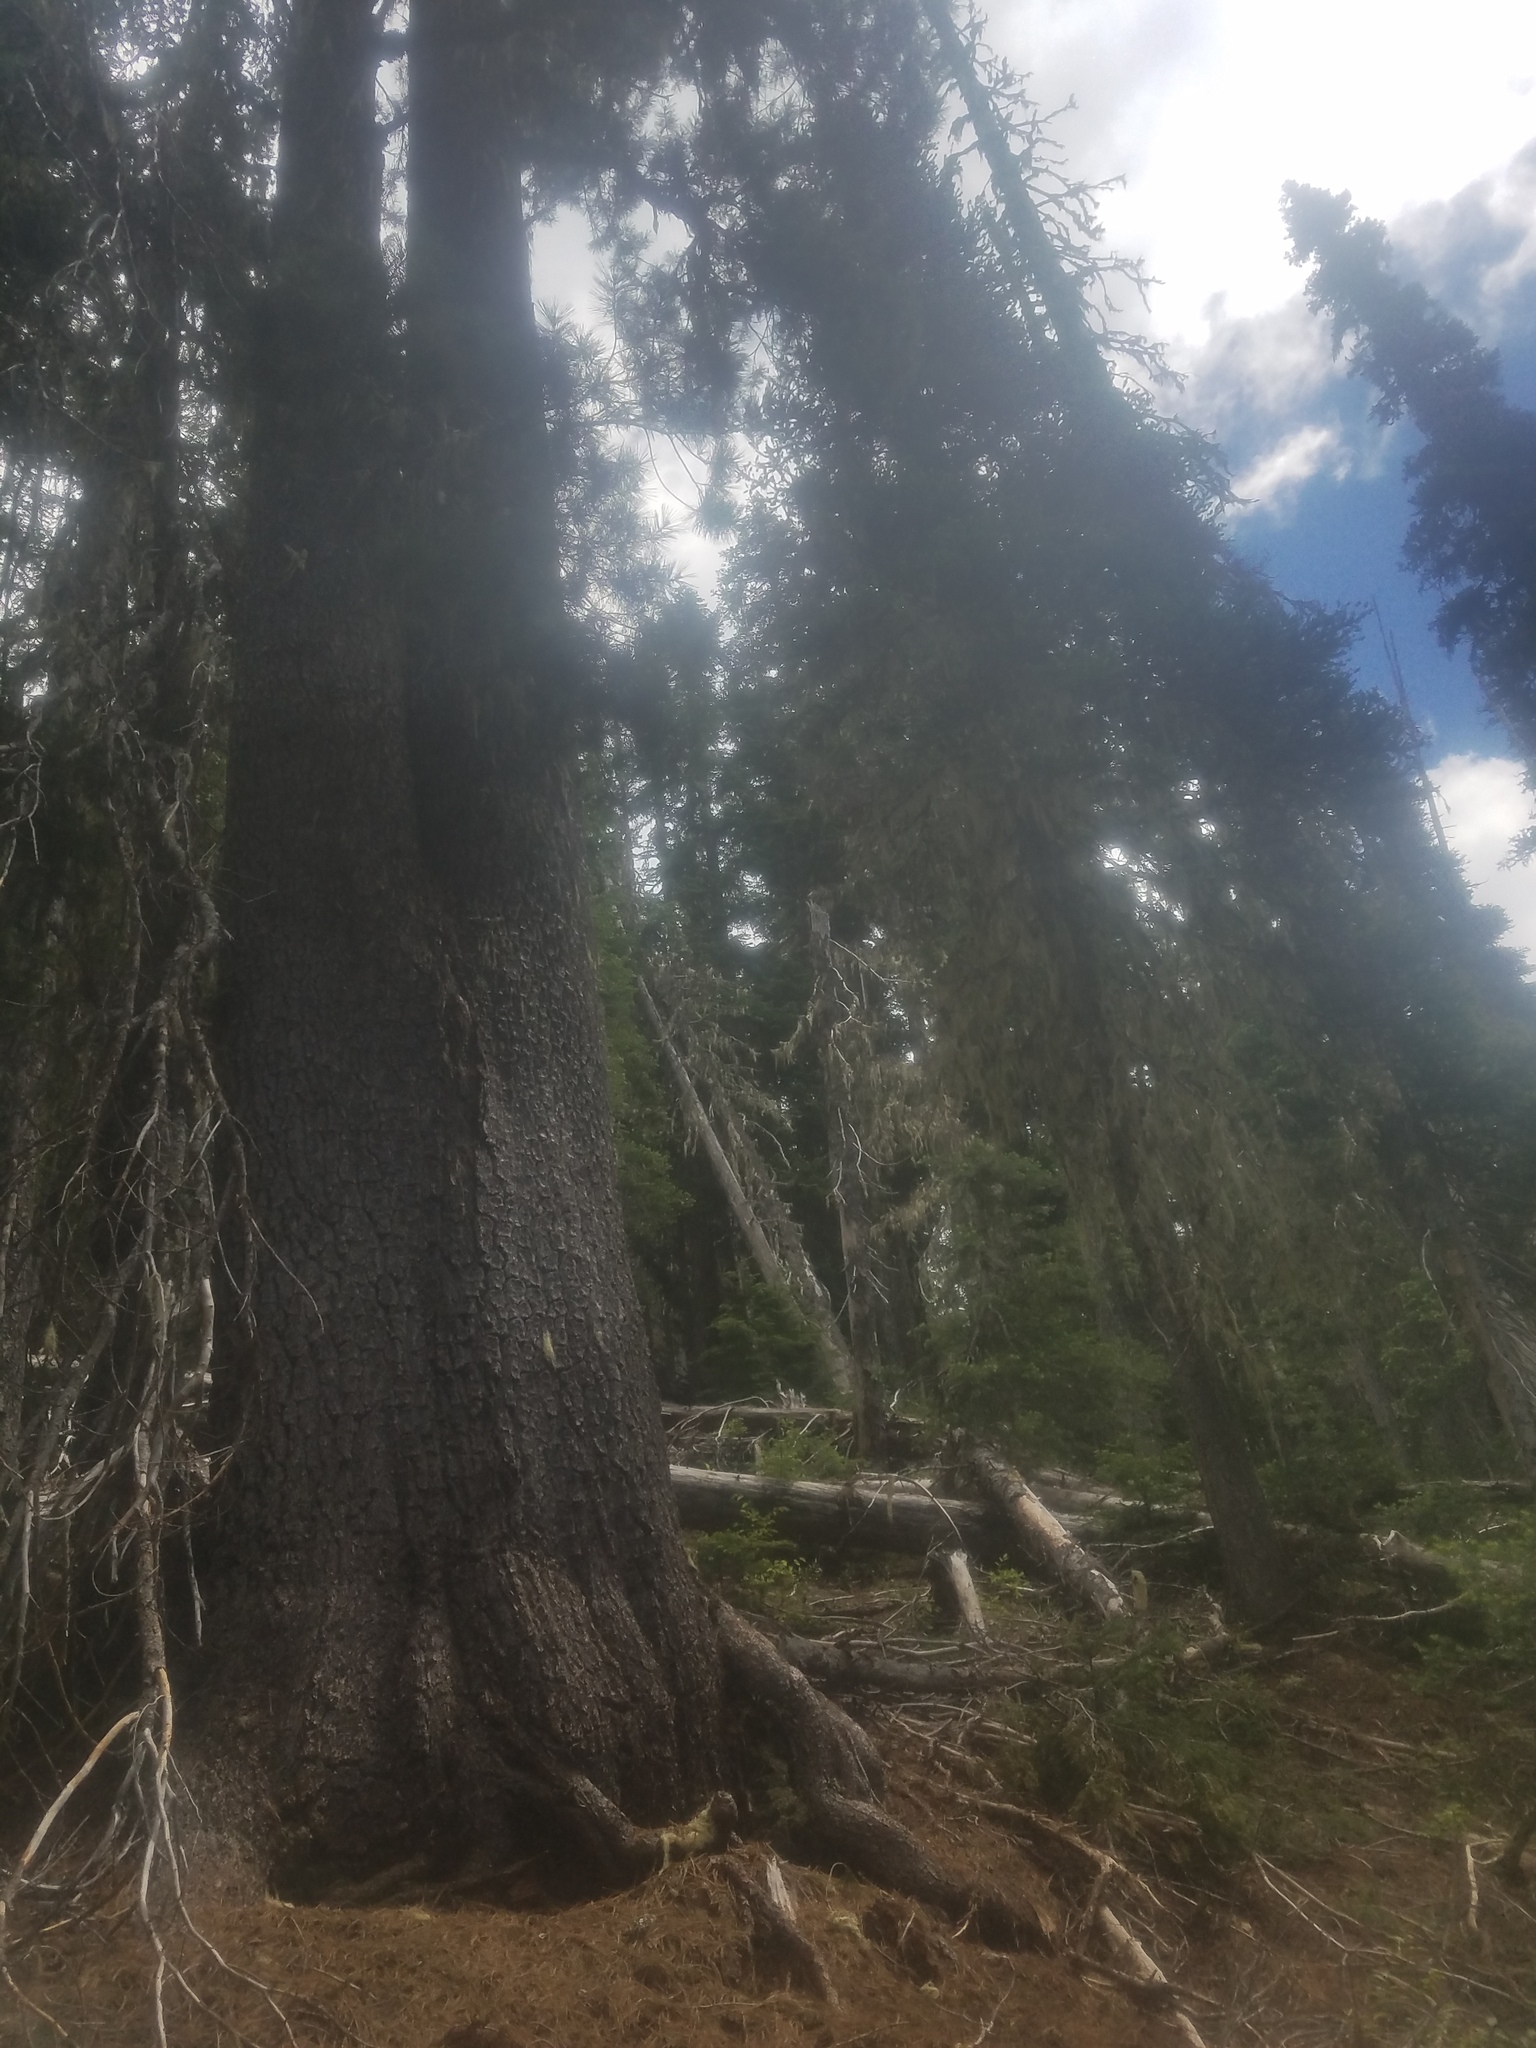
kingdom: Plantae
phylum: Tracheophyta
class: Pinopsida
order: Pinales
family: Pinaceae
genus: Pinus
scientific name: Pinus monticola
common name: Western white pine
